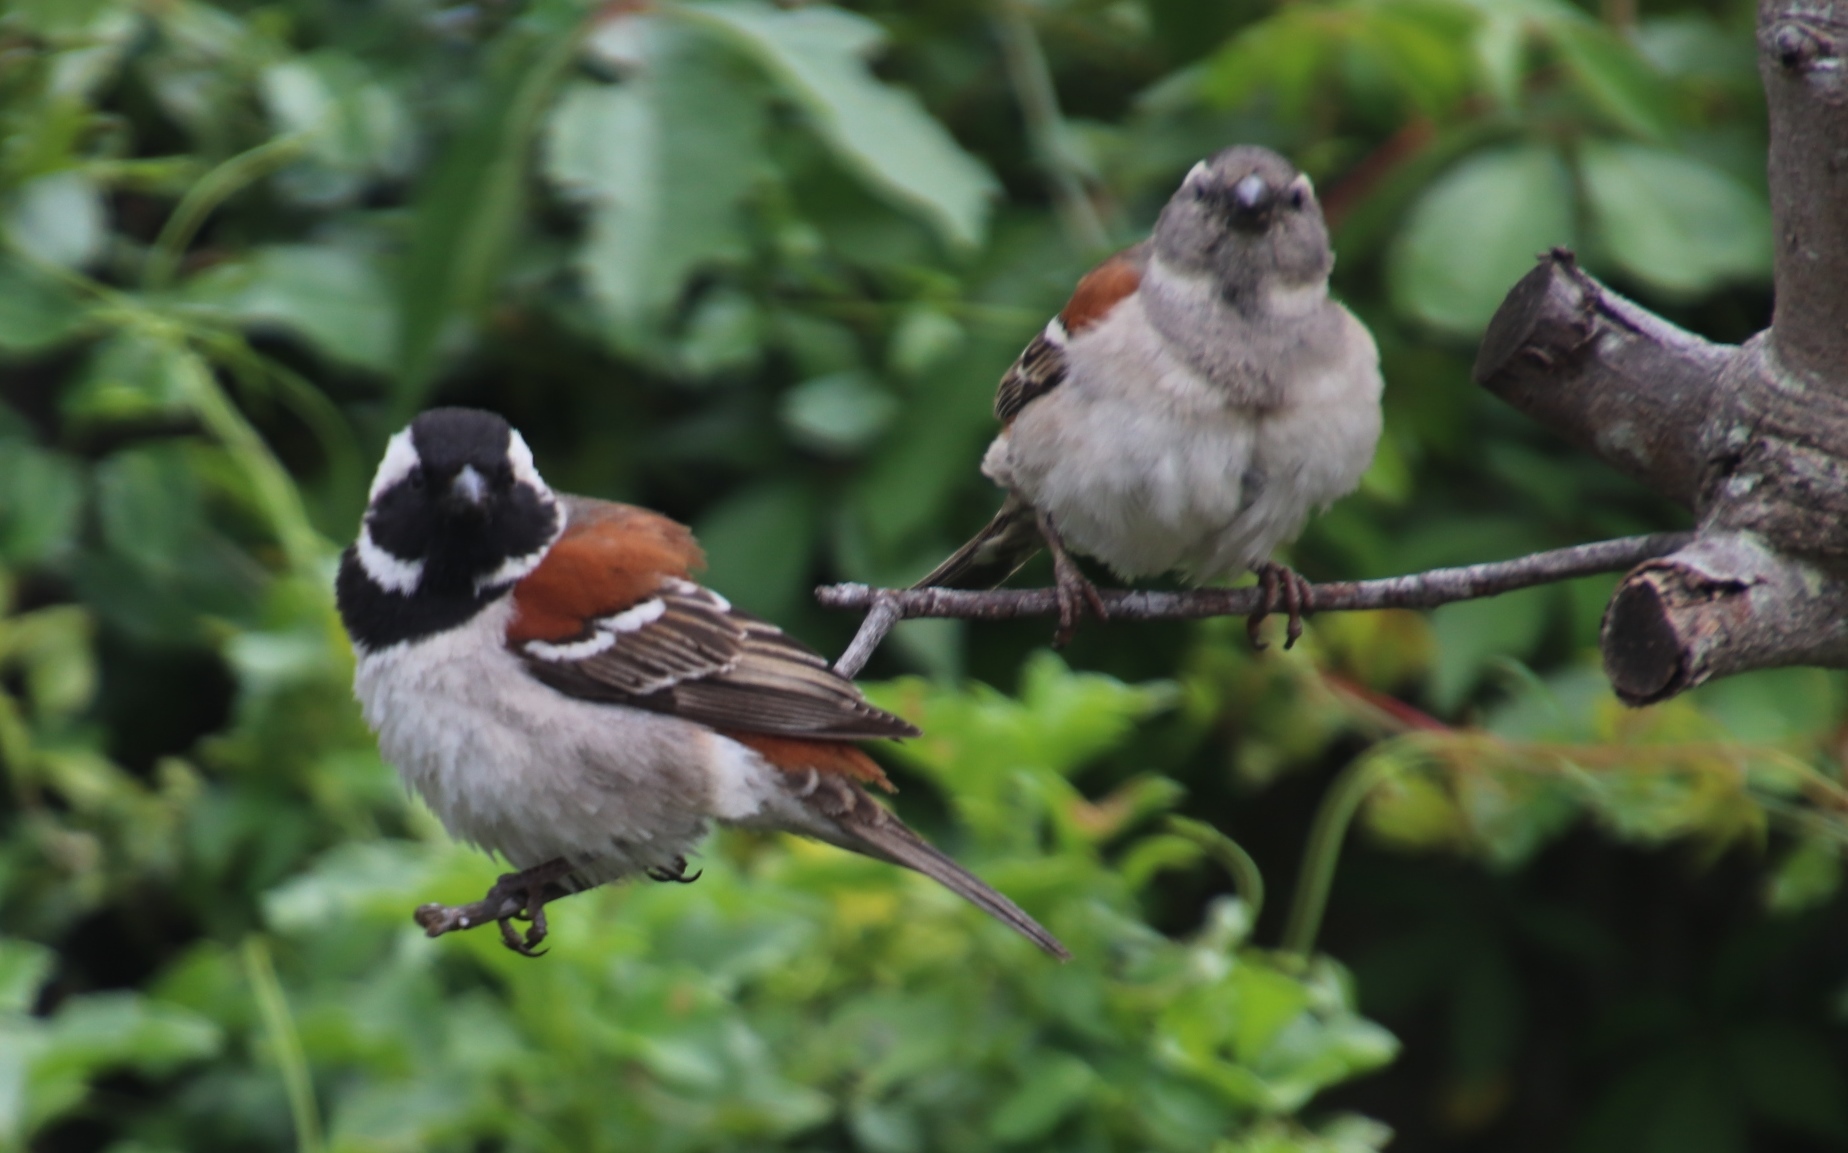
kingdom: Animalia
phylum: Chordata
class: Aves
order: Passeriformes
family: Passeridae
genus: Passer
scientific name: Passer melanurus
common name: Cape sparrow
